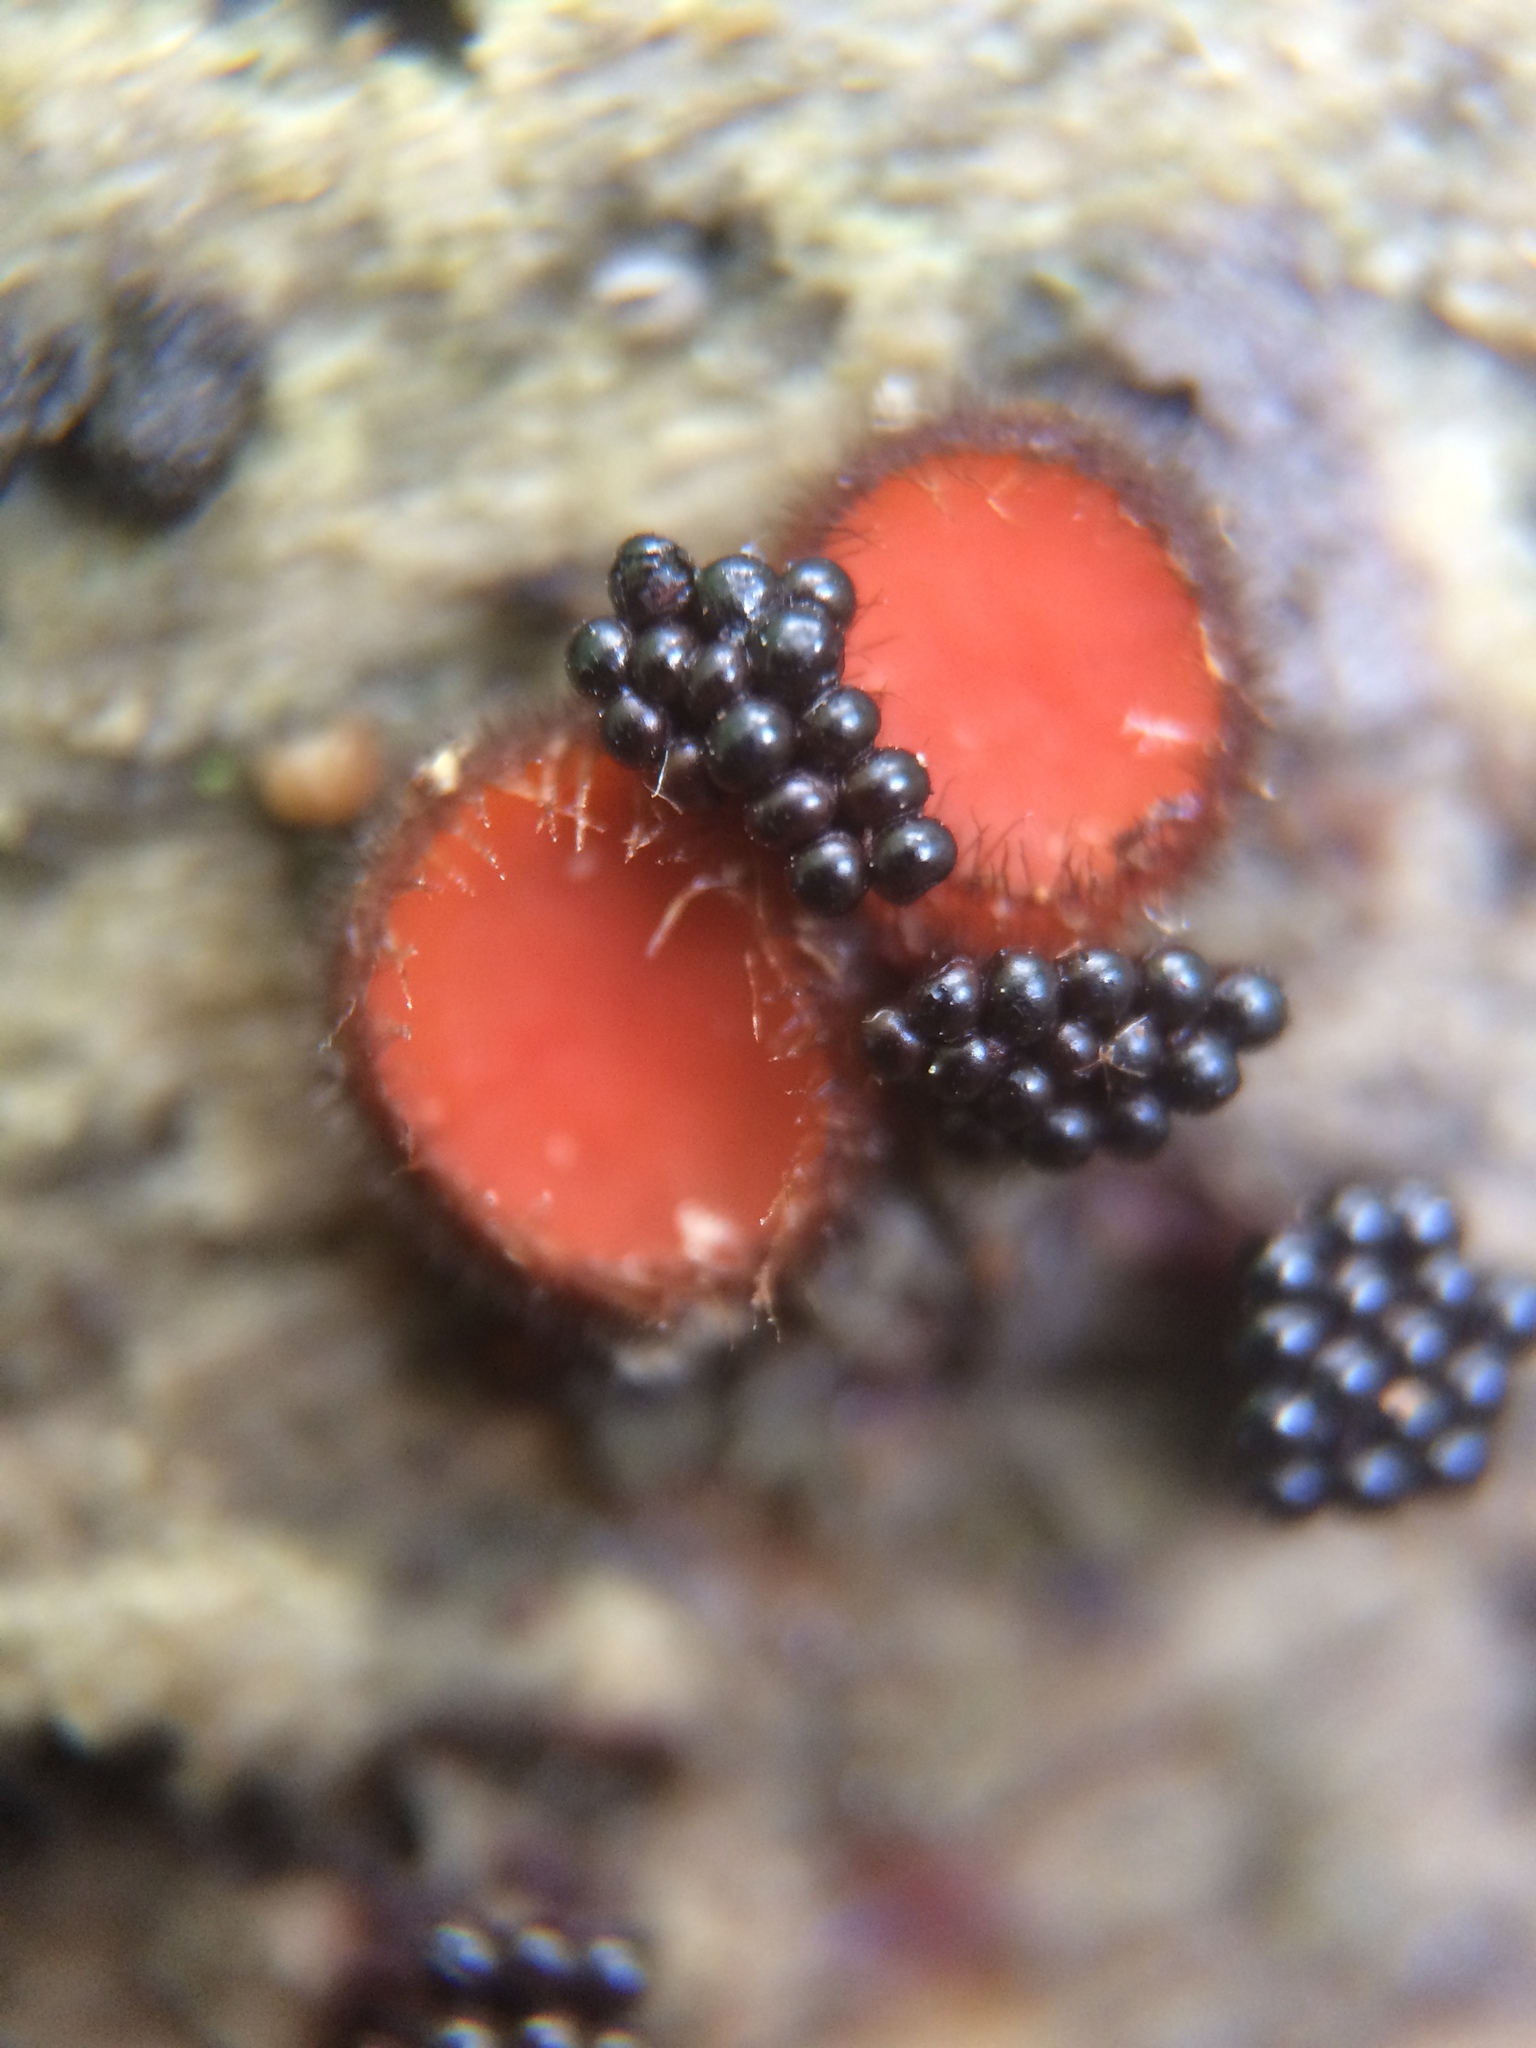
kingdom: Fungi
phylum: Ascomycota
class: Pezizomycetes
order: Pezizales
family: Pyronemataceae
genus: Scutellinia
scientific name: Scutellinia
